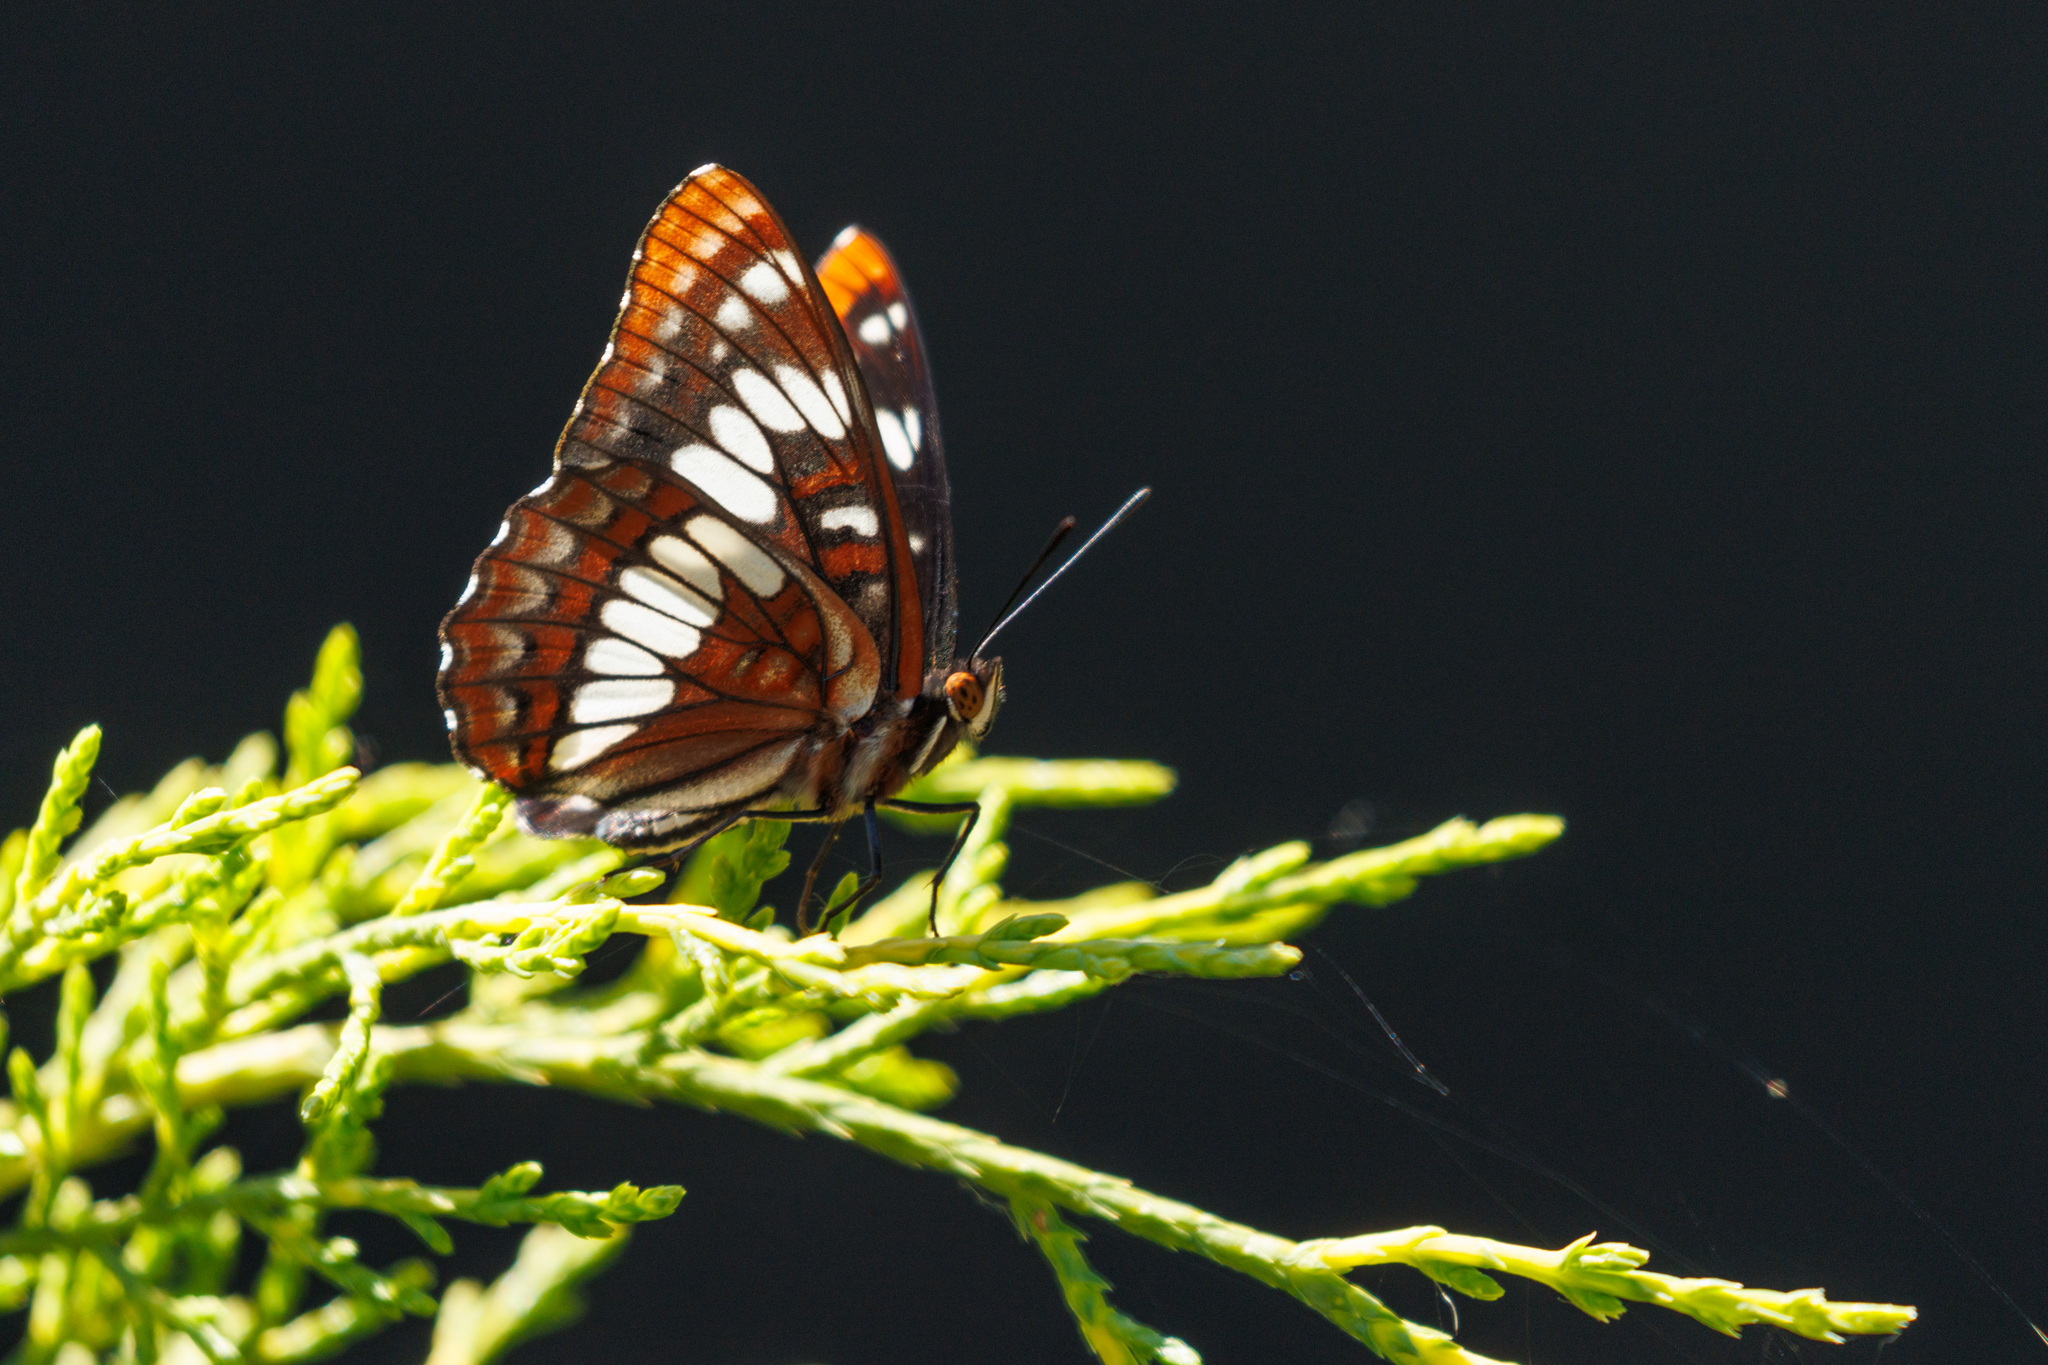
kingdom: Animalia
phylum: Arthropoda
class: Insecta
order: Lepidoptera
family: Nymphalidae
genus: Limenitis
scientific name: Limenitis lorquini
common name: Lorquin's admiral
